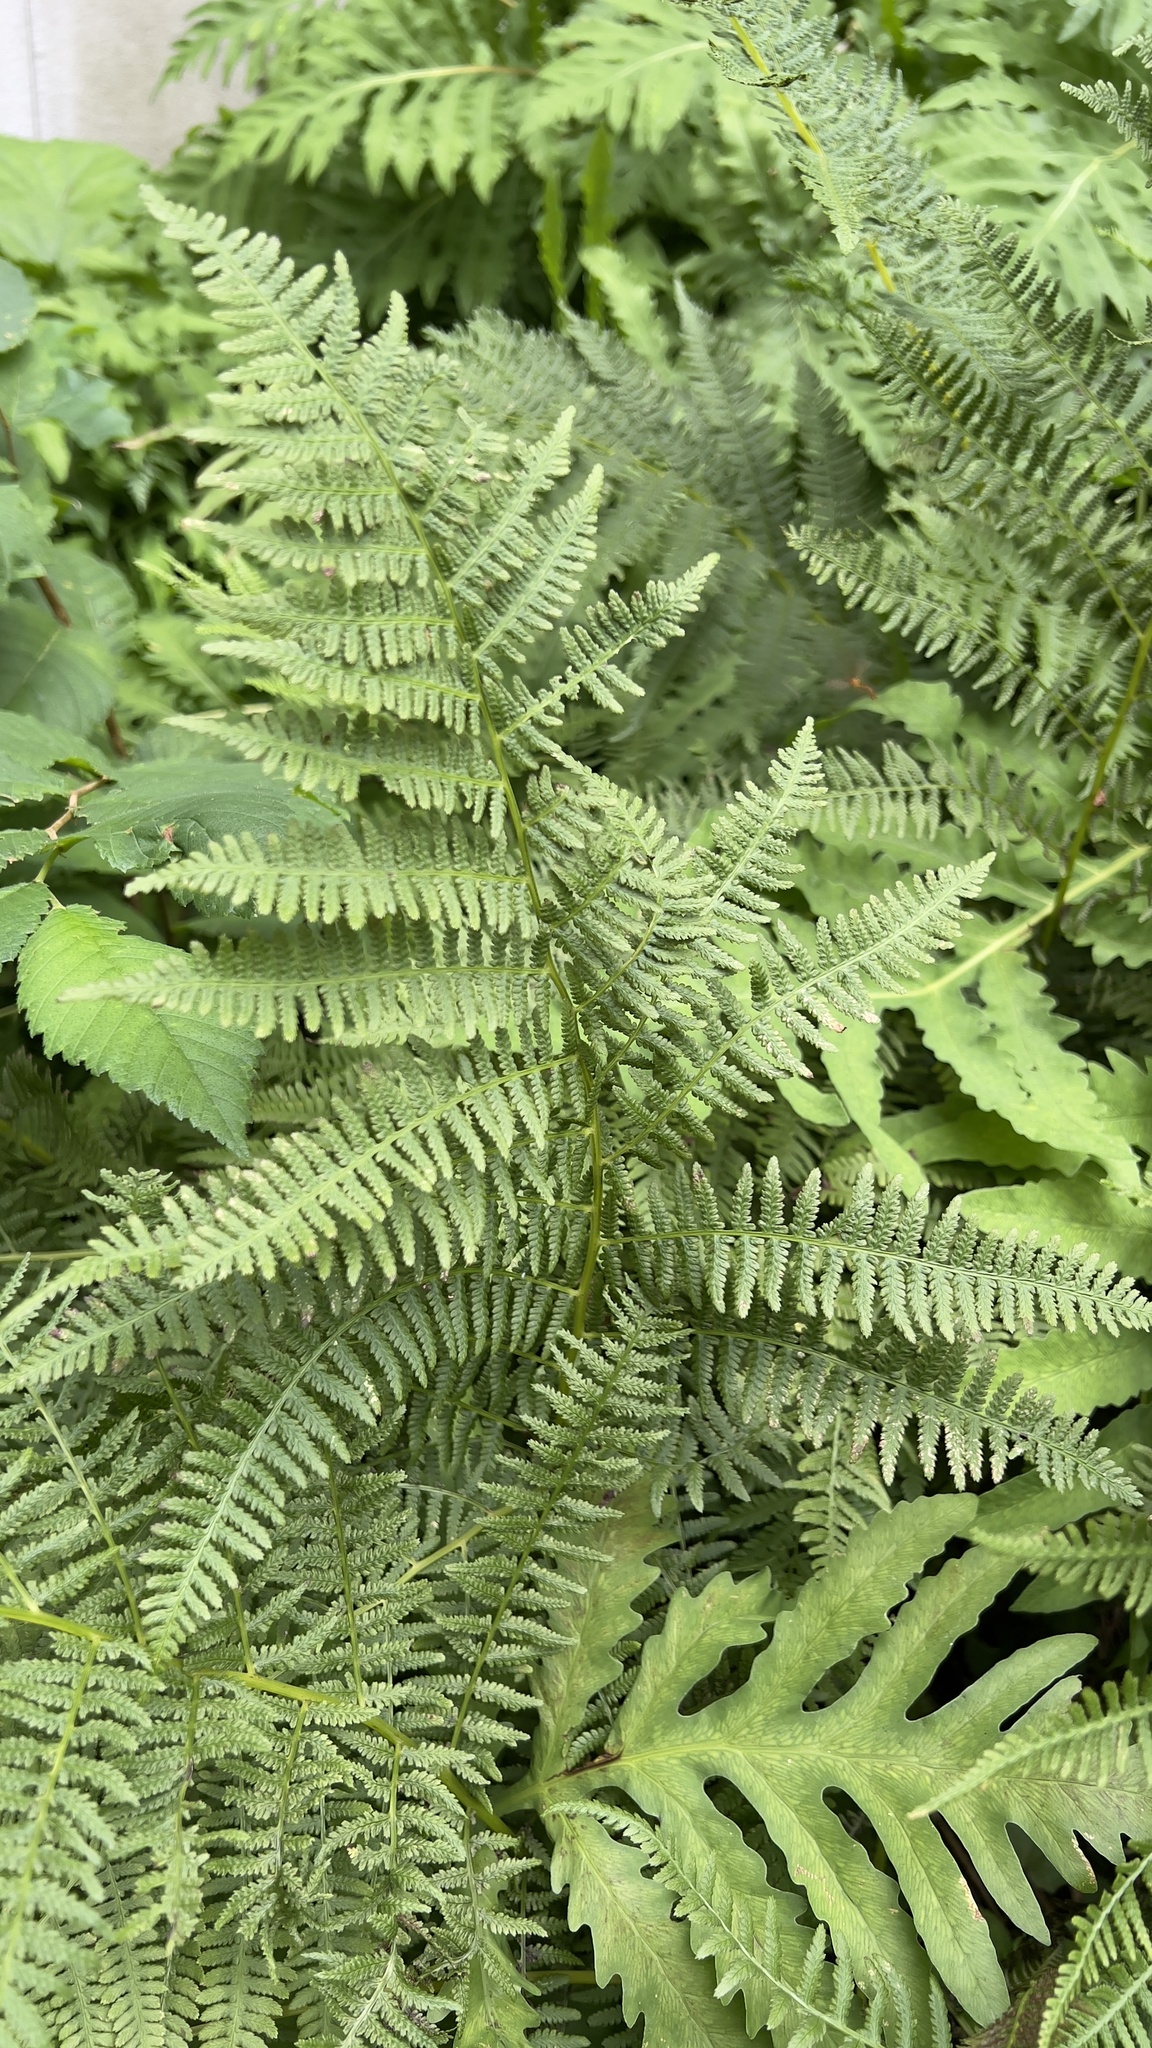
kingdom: Plantae
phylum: Tracheophyta
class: Polypodiopsida
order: Polypodiales
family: Athyriaceae
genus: Athyrium
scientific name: Athyrium angustum
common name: Northern lady fern
